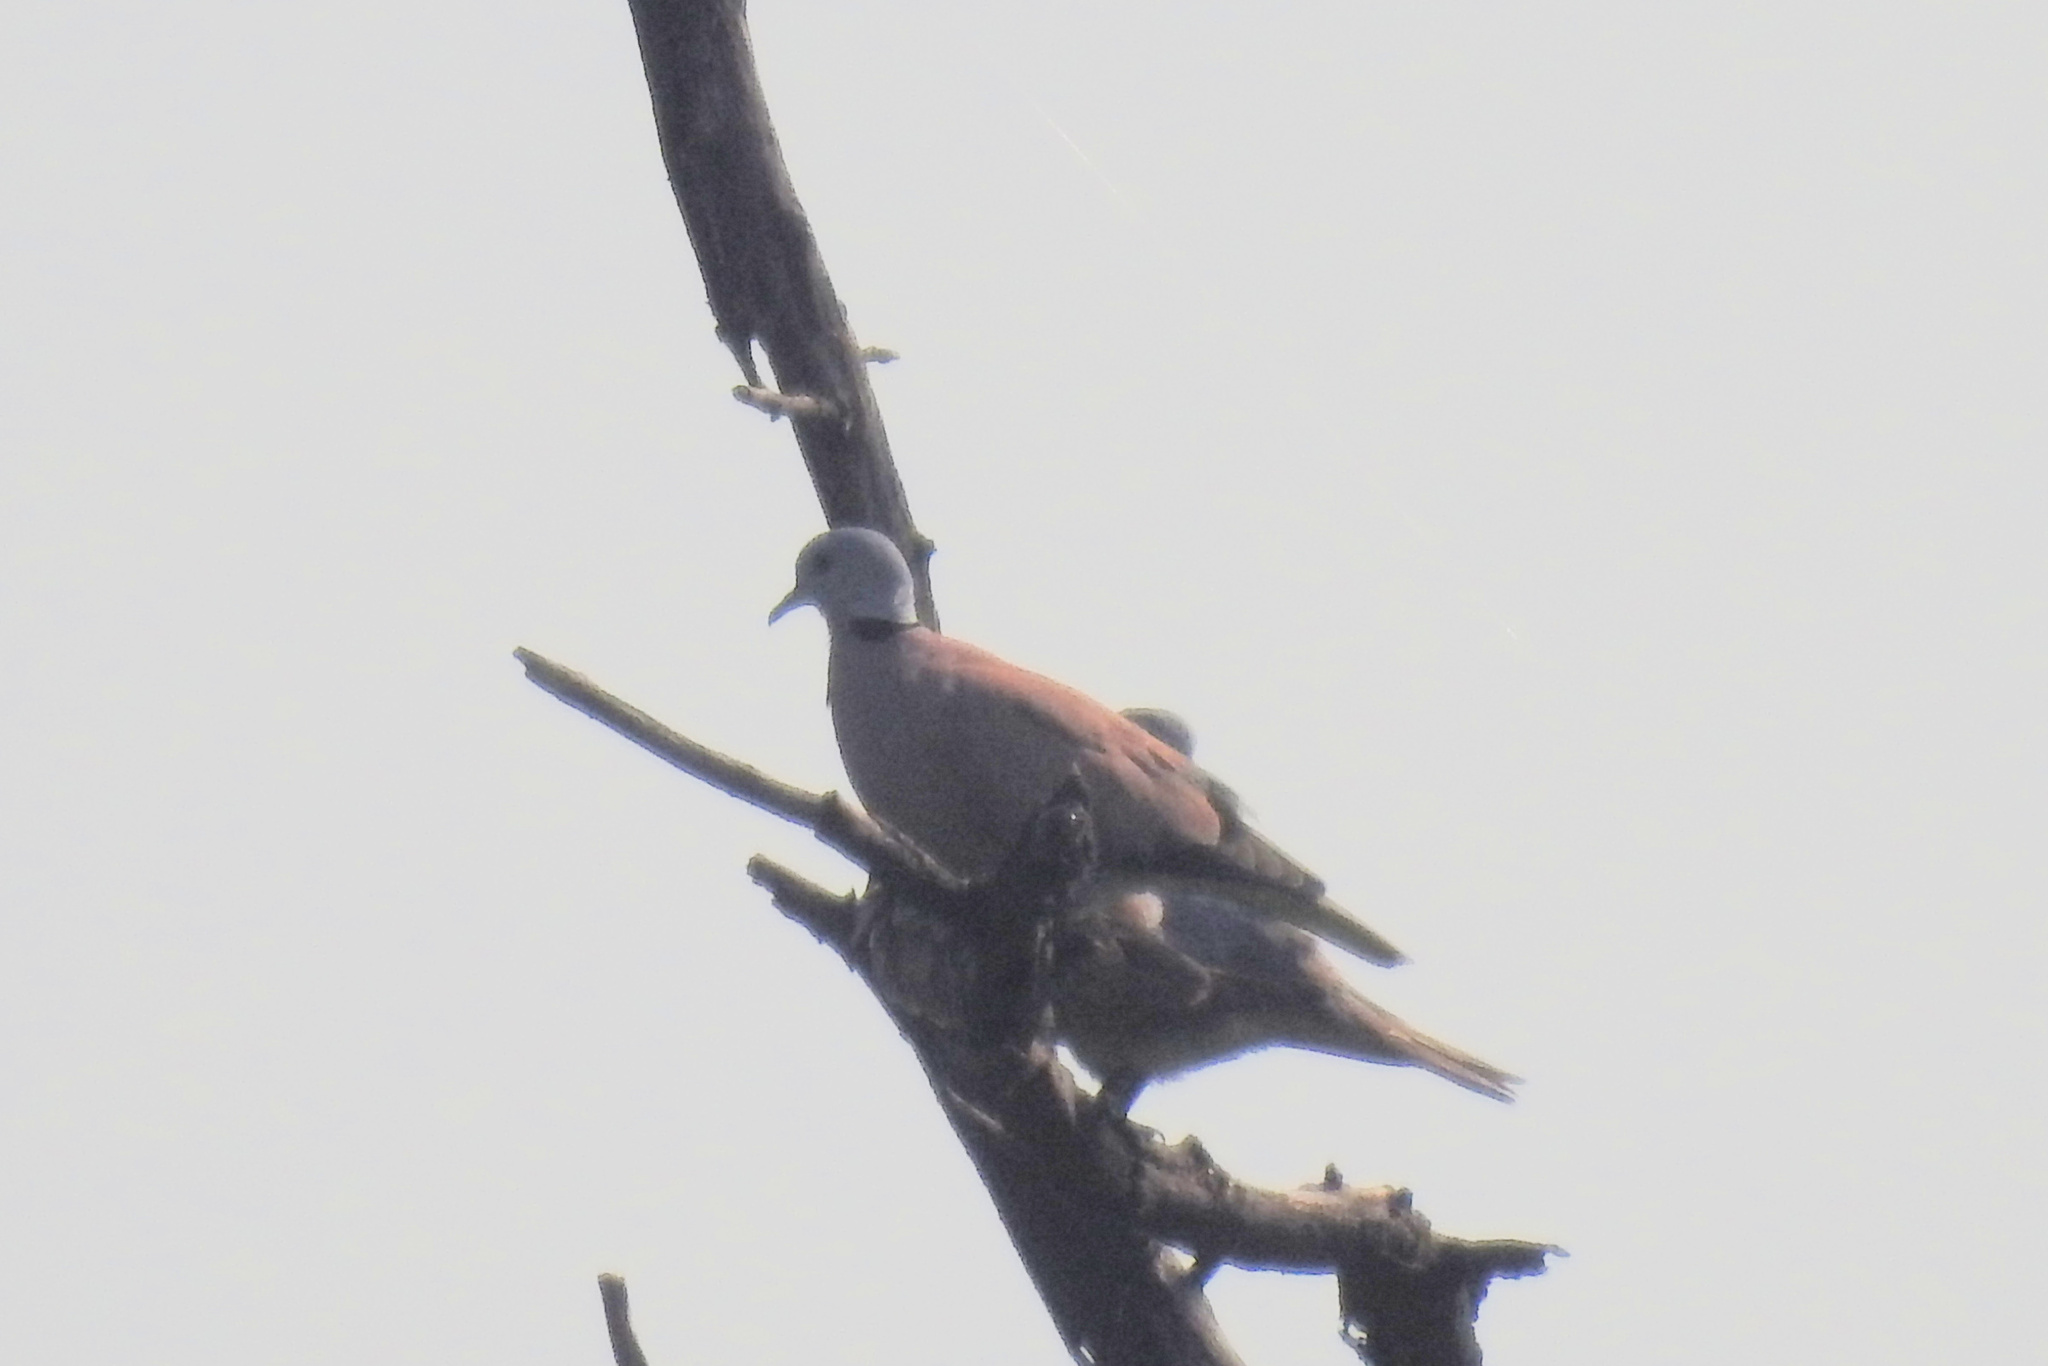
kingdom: Animalia
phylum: Chordata
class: Aves
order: Columbiformes
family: Columbidae
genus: Streptopelia
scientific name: Streptopelia tranquebarica
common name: Red turtle dove
